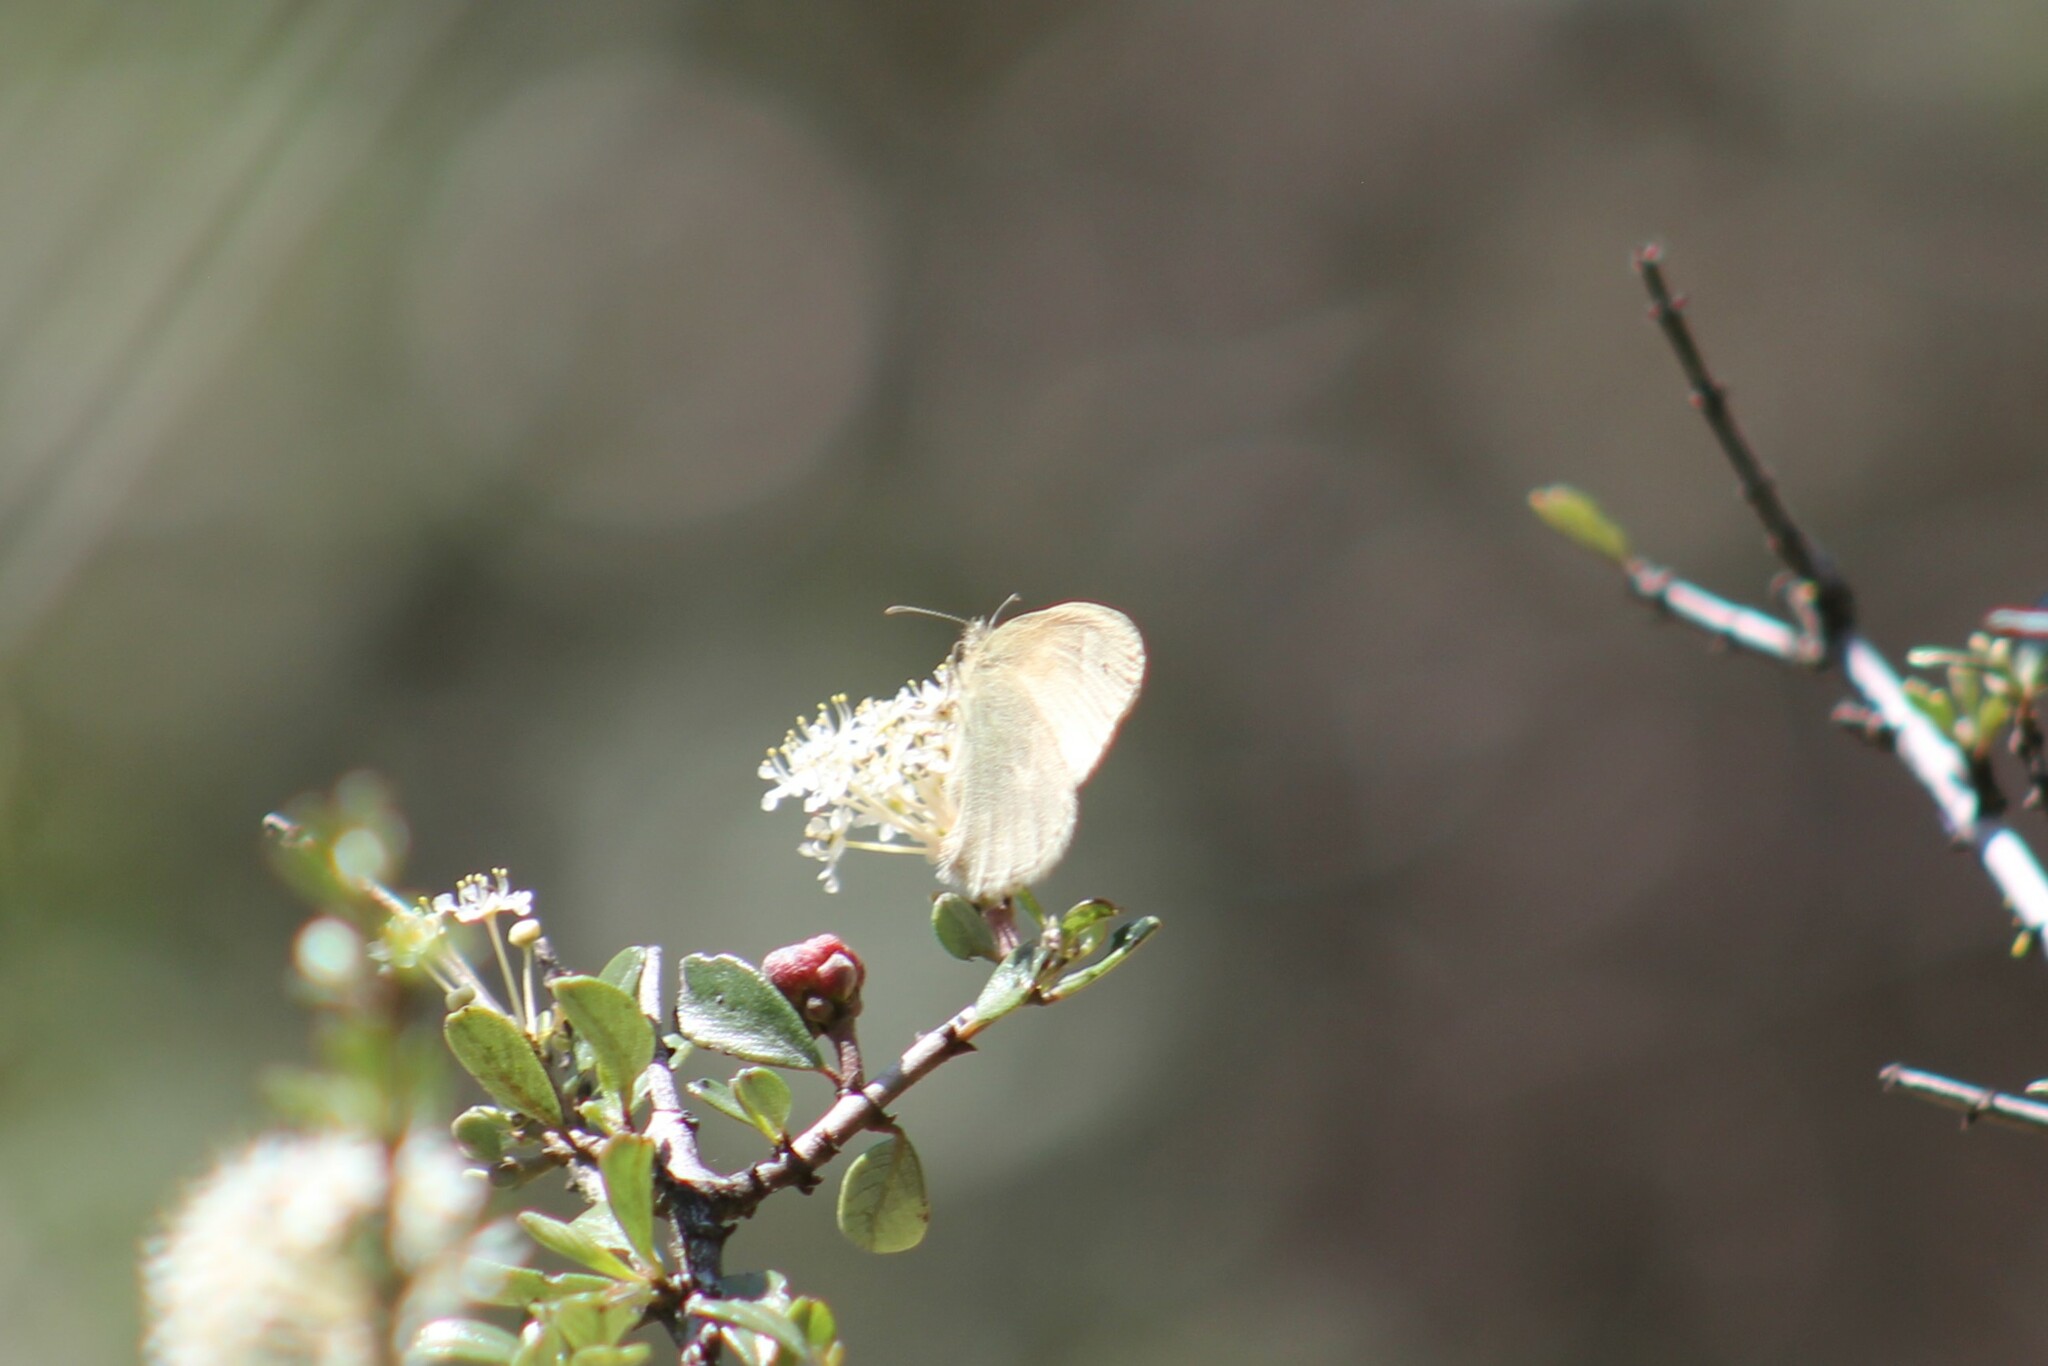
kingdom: Animalia
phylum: Arthropoda
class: Insecta
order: Lepidoptera
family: Nymphalidae
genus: Coenonympha
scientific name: Coenonympha california
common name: Common ringlet
